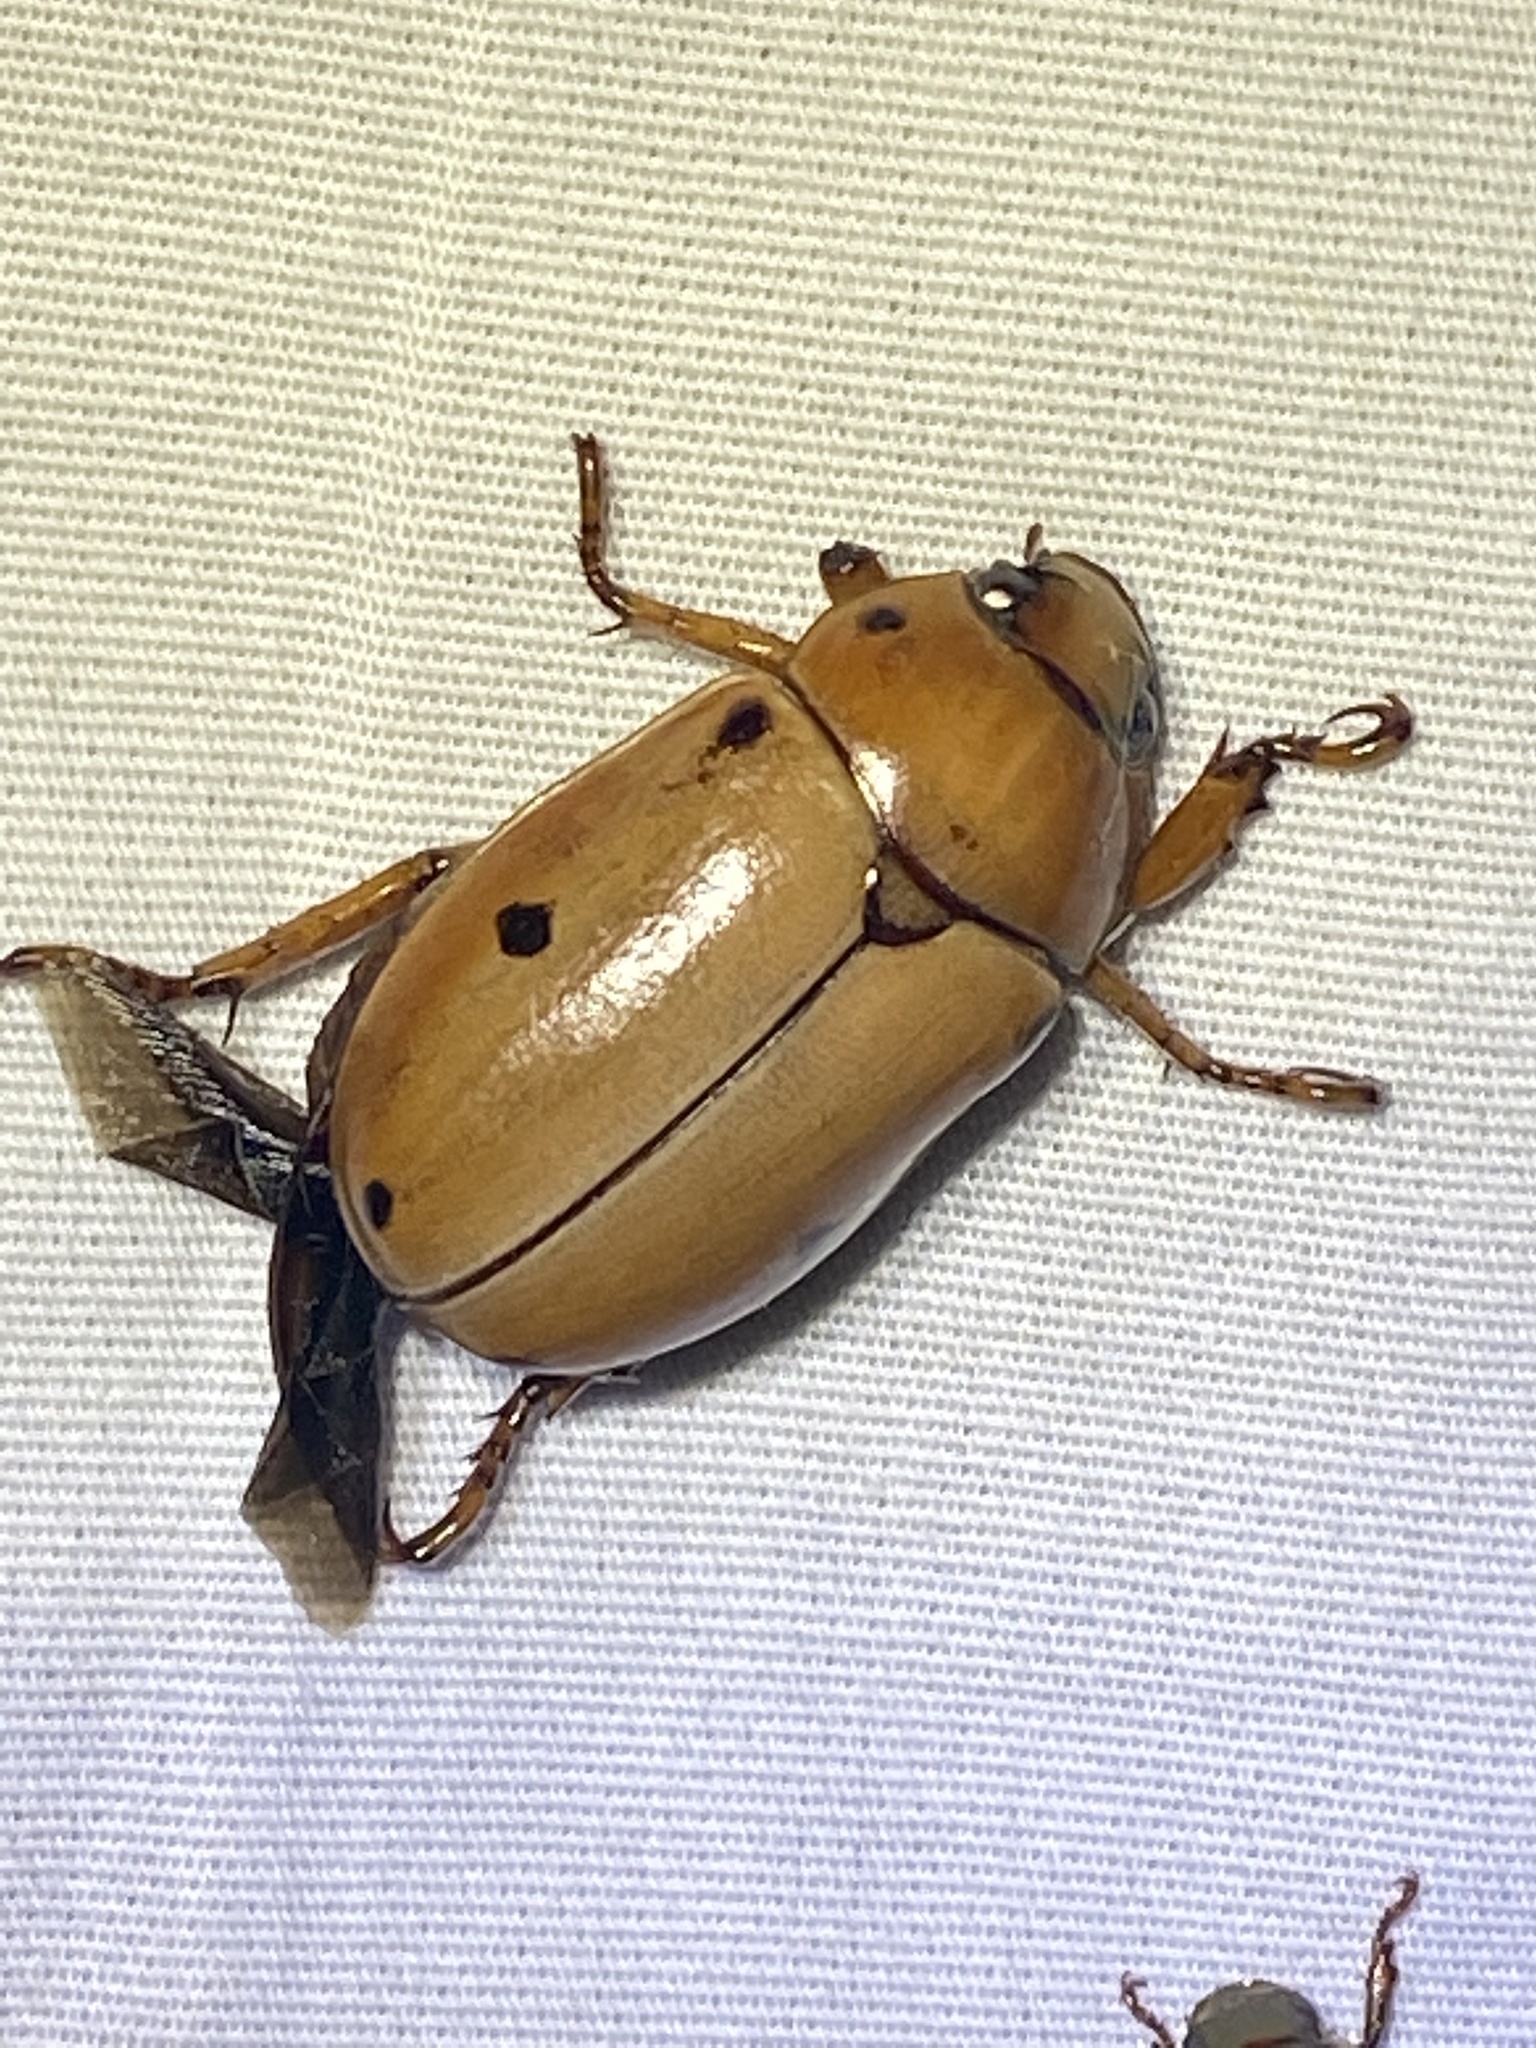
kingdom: Animalia
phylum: Arthropoda
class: Insecta
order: Coleoptera
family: Scarabaeidae
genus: Pelidnota
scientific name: Pelidnota punctata
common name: Grapevine beetle
